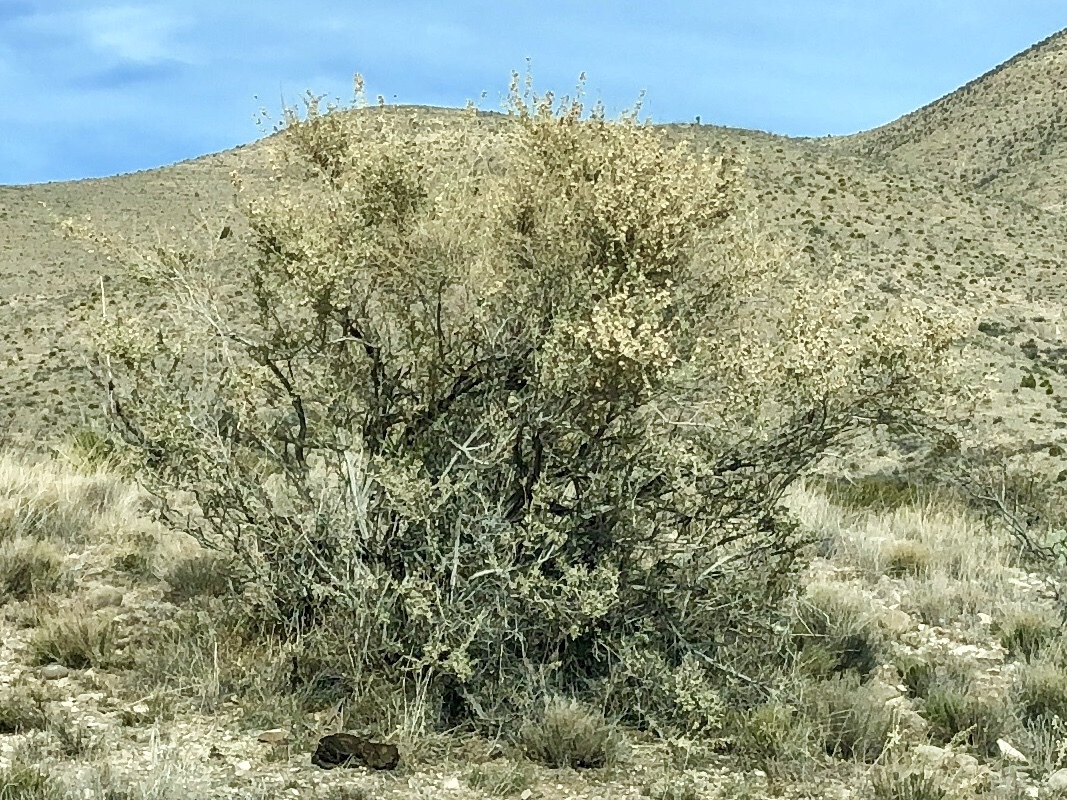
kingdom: Plantae
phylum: Tracheophyta
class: Magnoliopsida
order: Caryophyllales
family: Amaranthaceae
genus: Atriplex
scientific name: Atriplex canescens
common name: Four-wing saltbush
